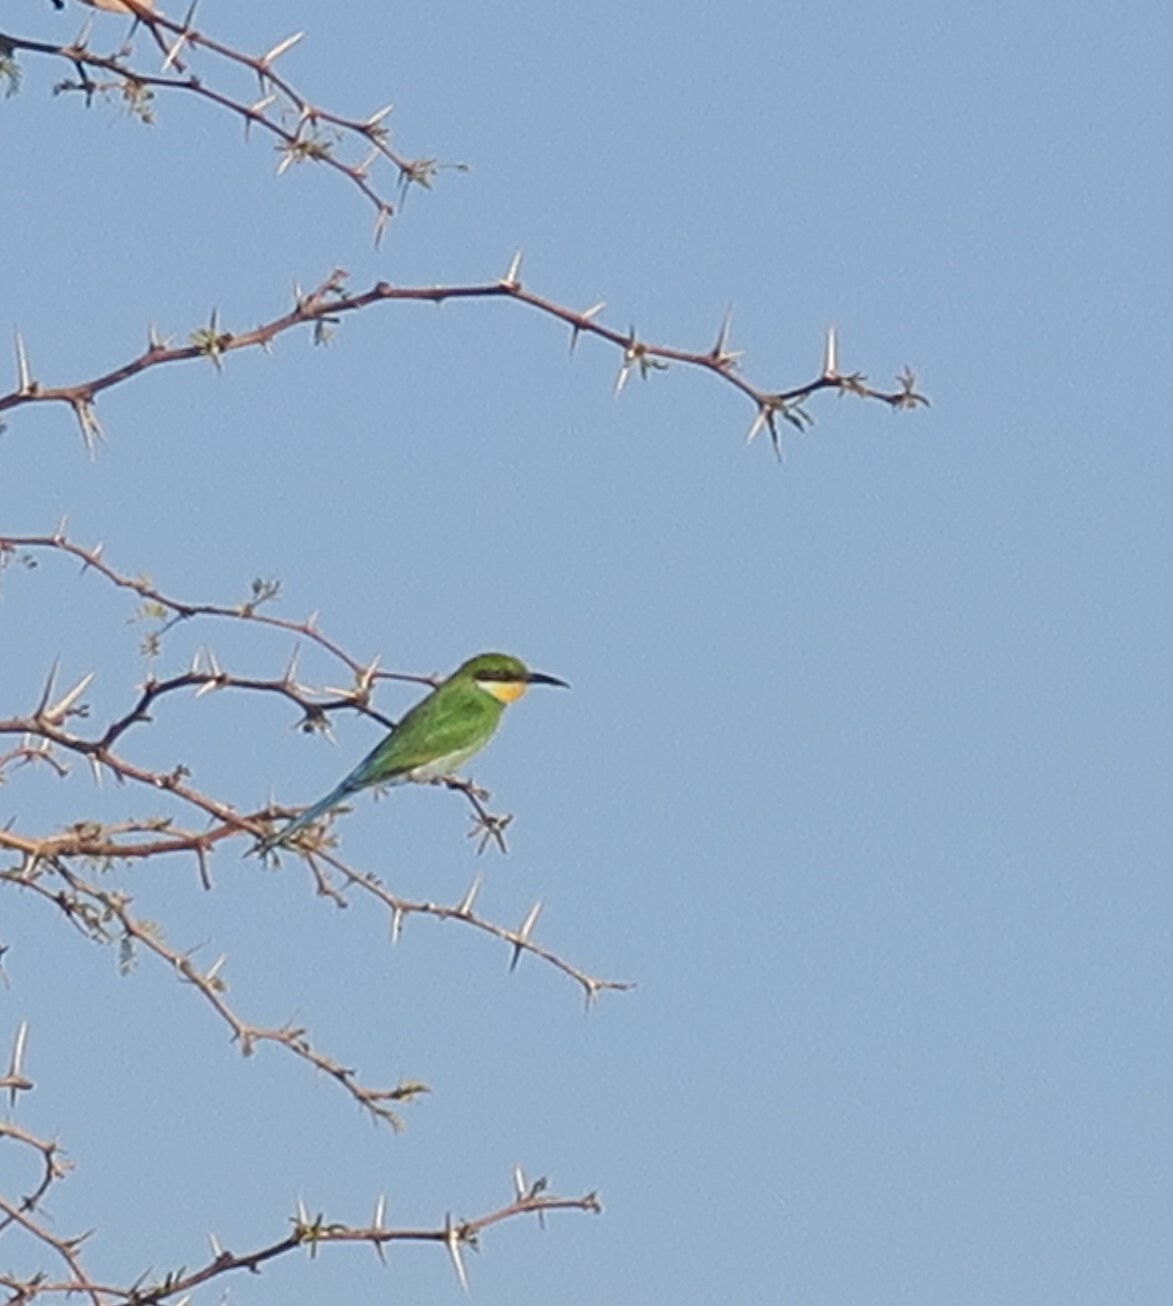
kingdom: Animalia
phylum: Chordata
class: Aves
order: Coraciiformes
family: Meropidae
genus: Merops
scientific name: Merops hirundineus
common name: Swallow-tailed bee-eater
